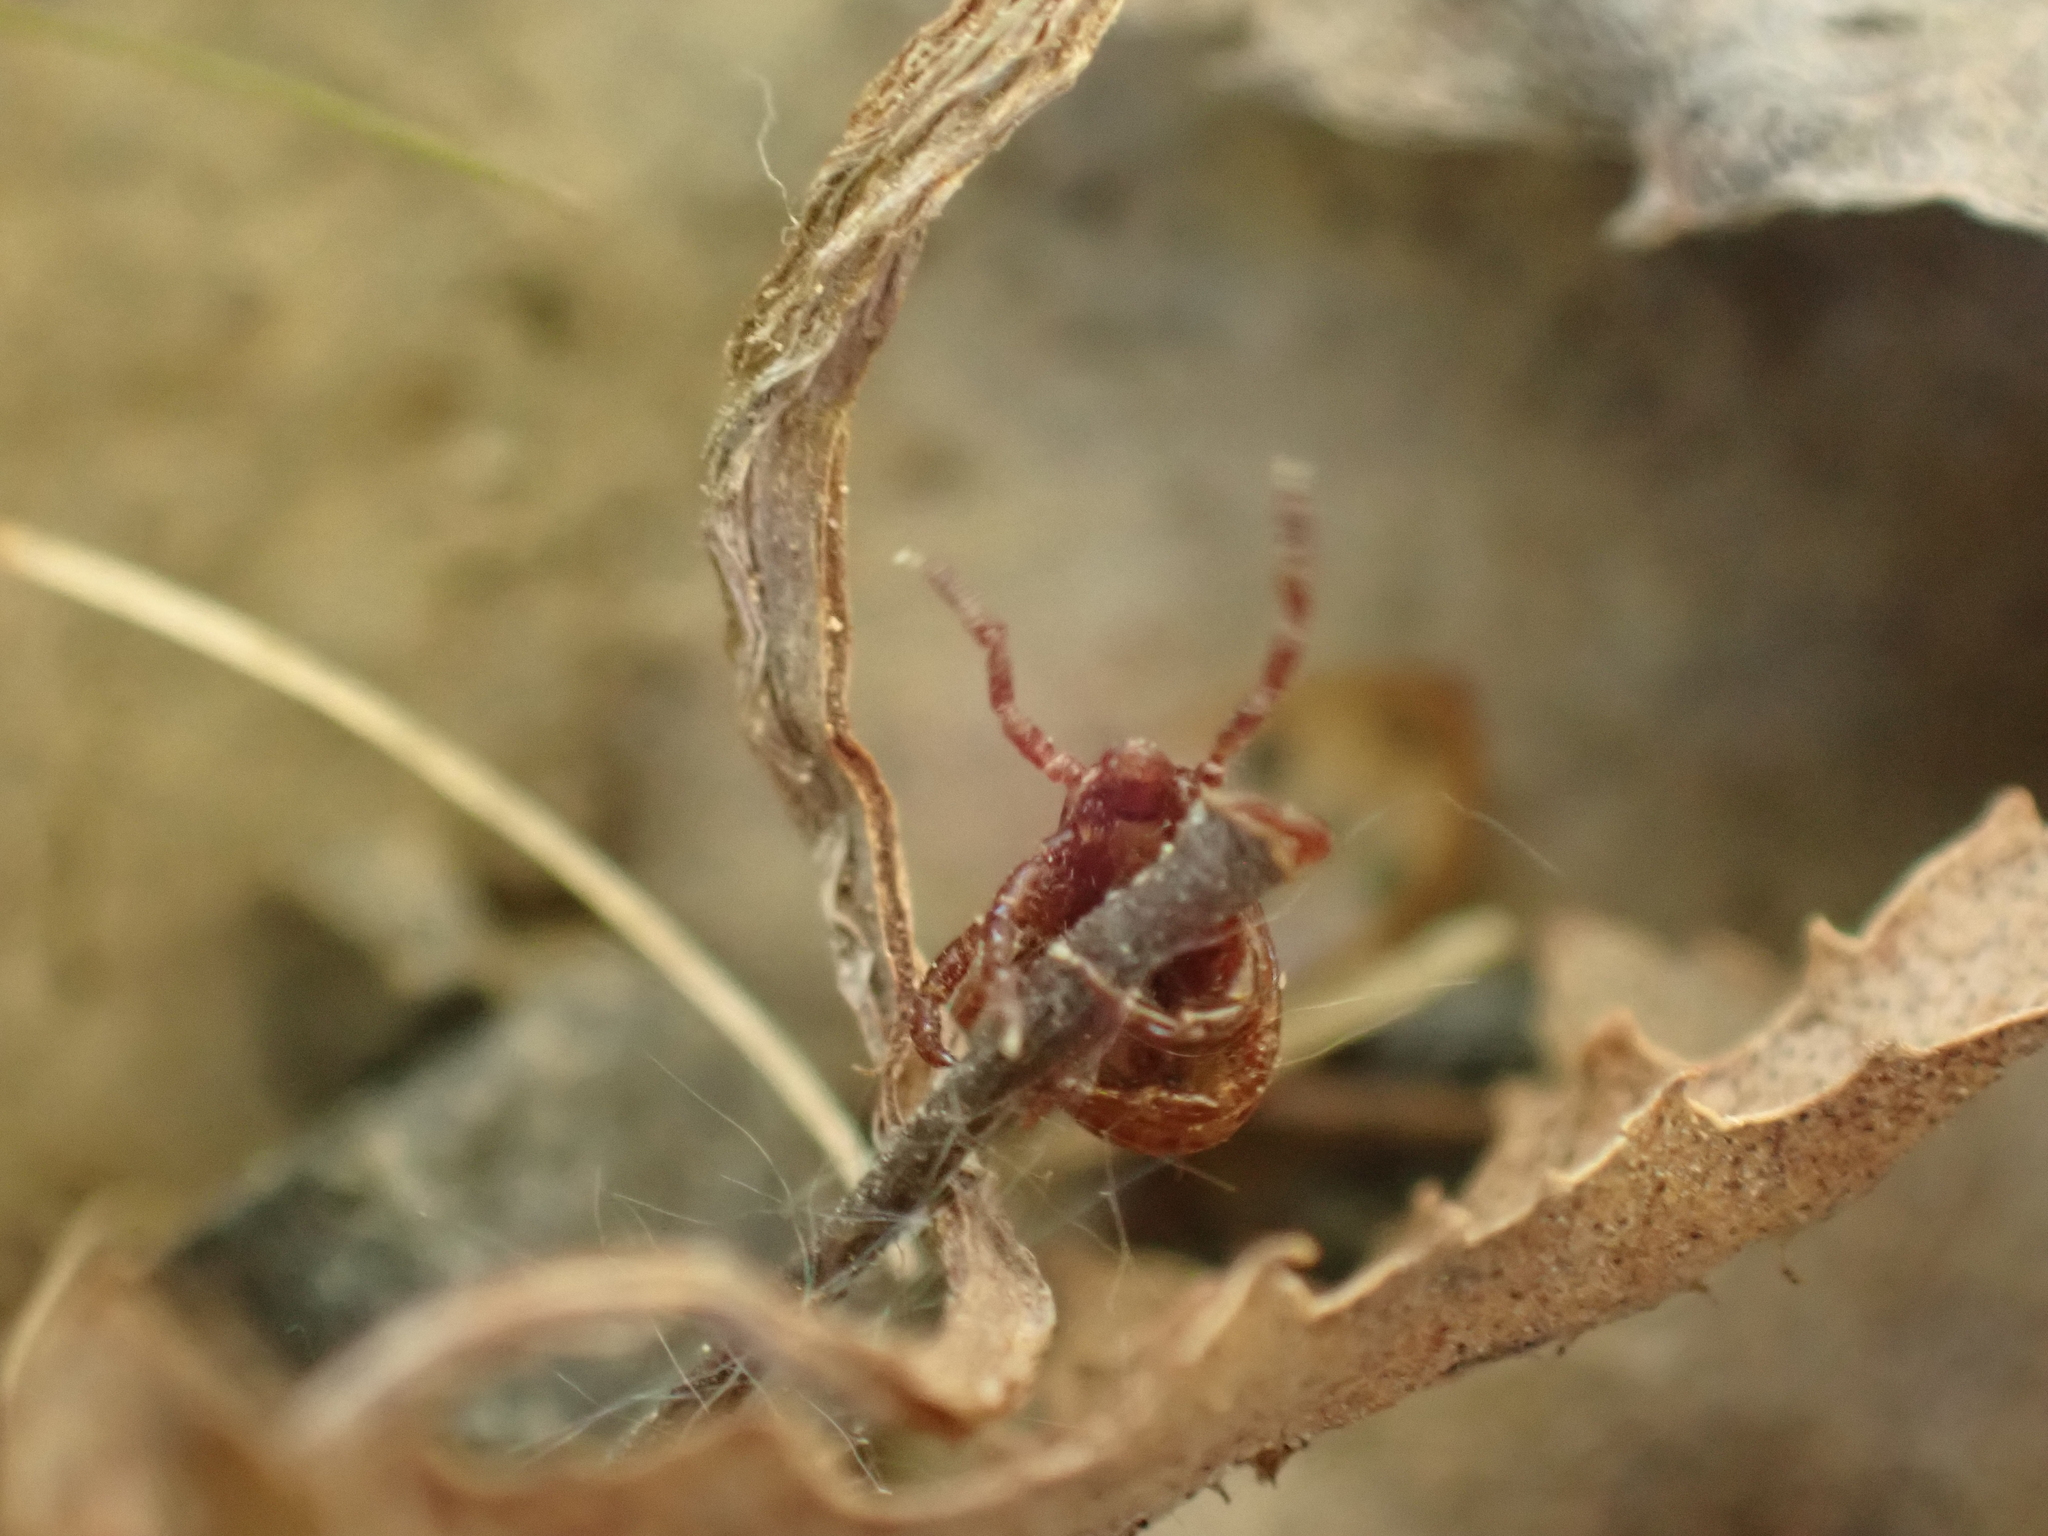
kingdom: Animalia
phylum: Arthropoda
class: Arachnida
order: Ixodida
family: Ixodidae
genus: Dermacentor
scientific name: Dermacentor variabilis
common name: American dog tick
